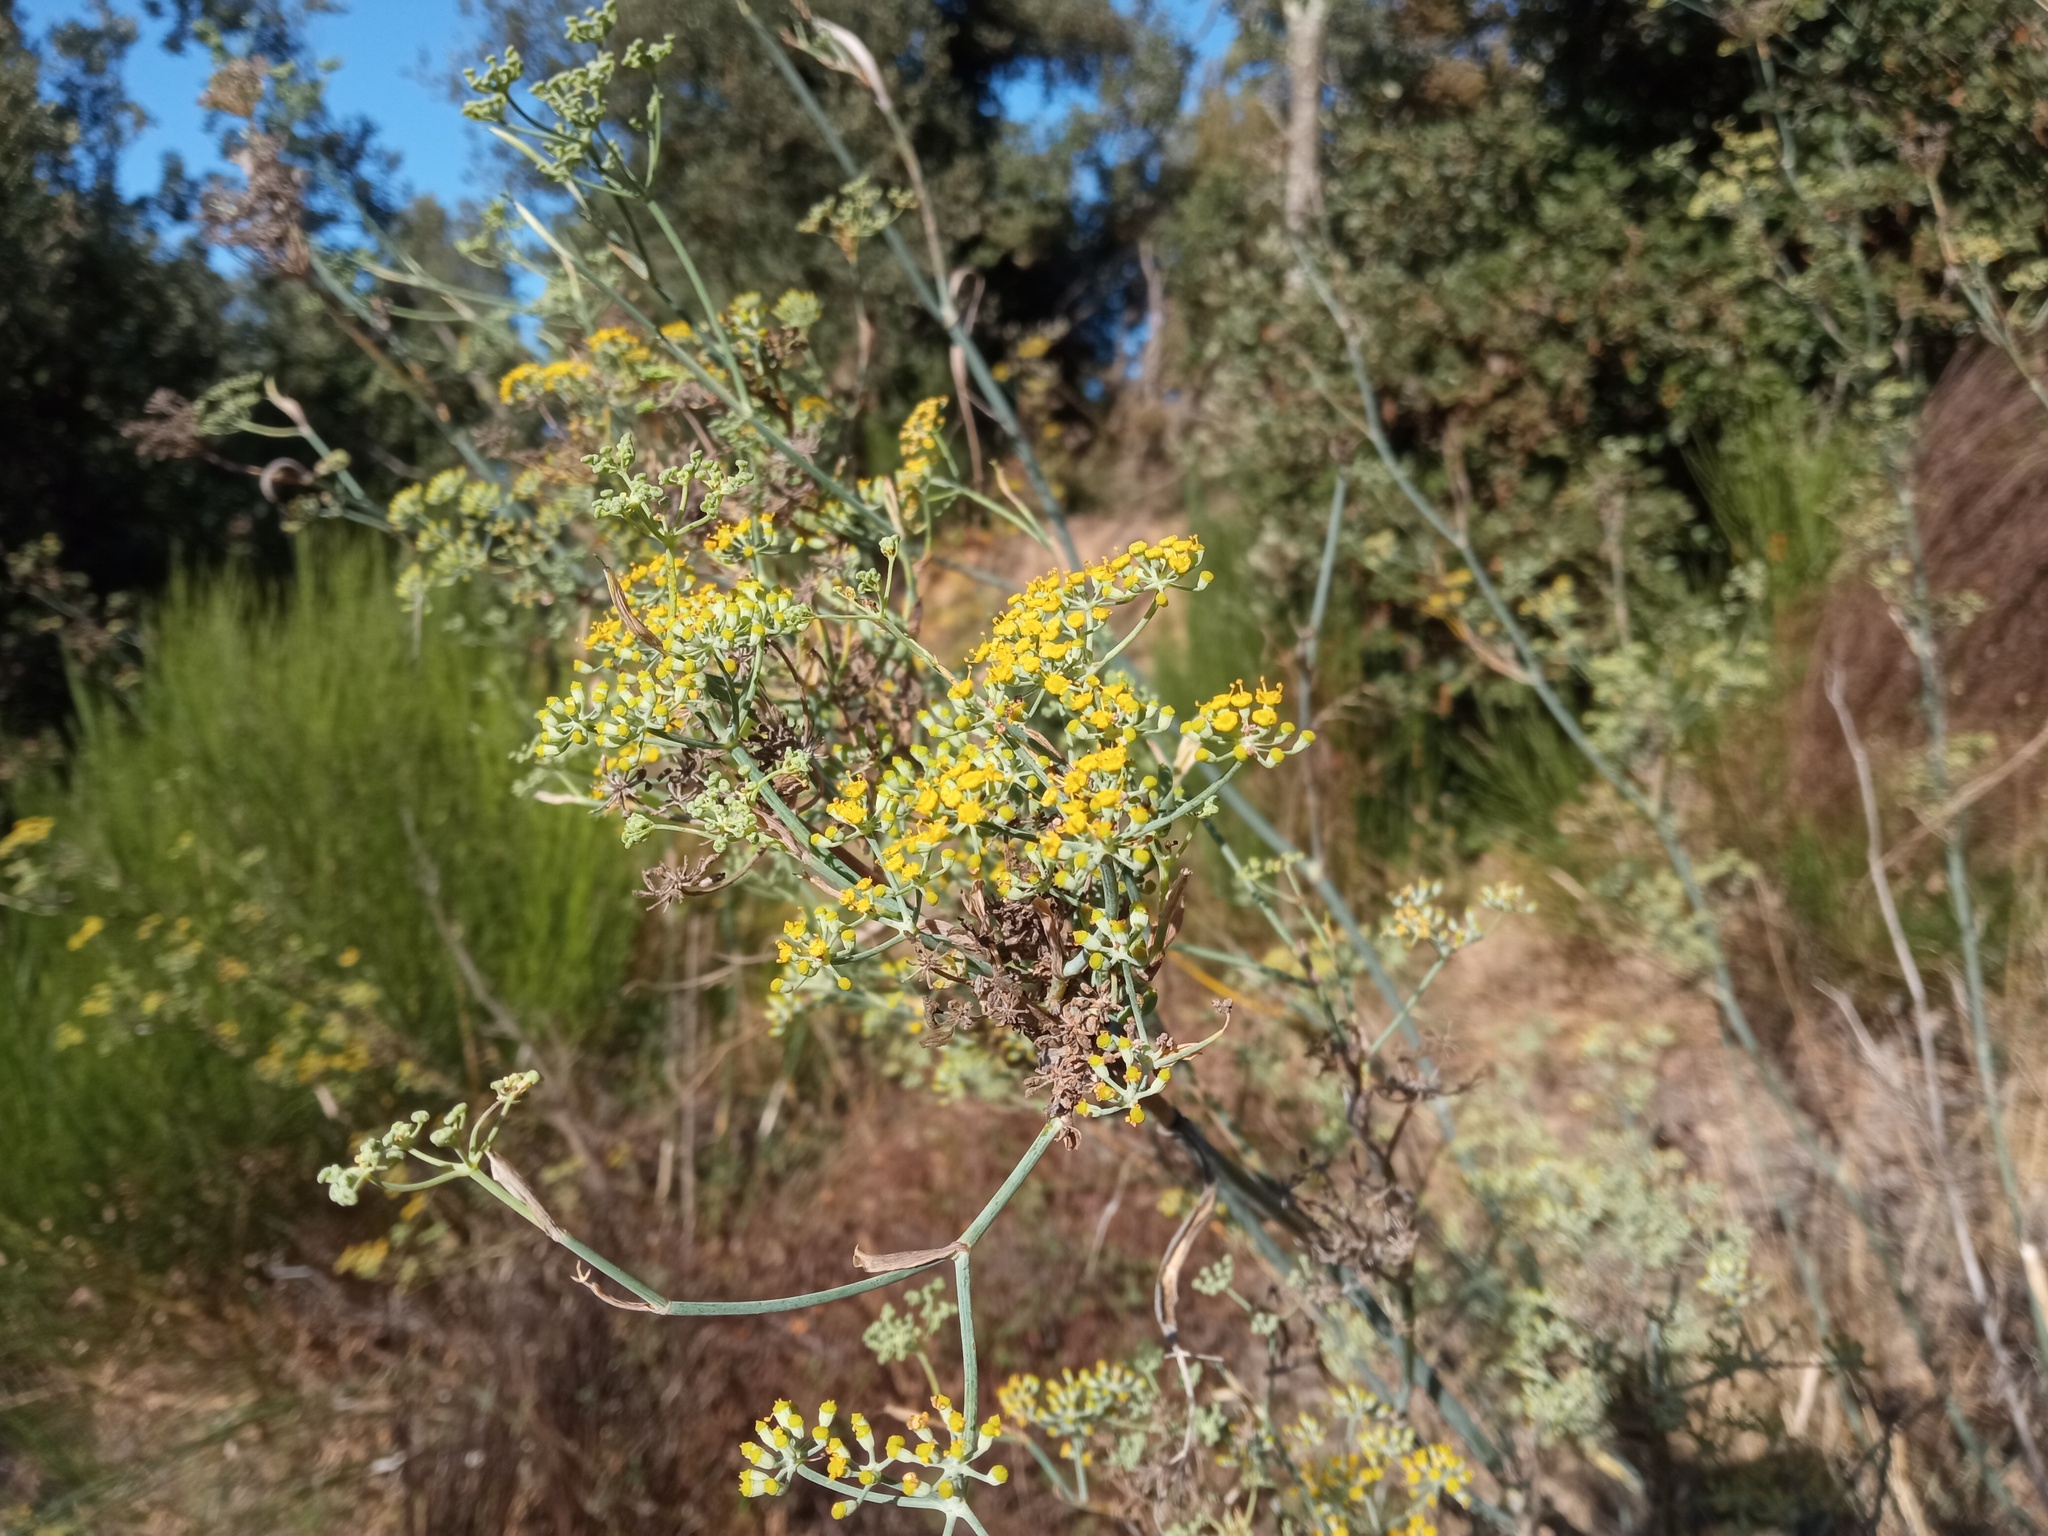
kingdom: Plantae
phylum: Tracheophyta
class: Magnoliopsida
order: Apiales
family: Apiaceae
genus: Foeniculum
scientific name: Foeniculum vulgare
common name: Fennel
